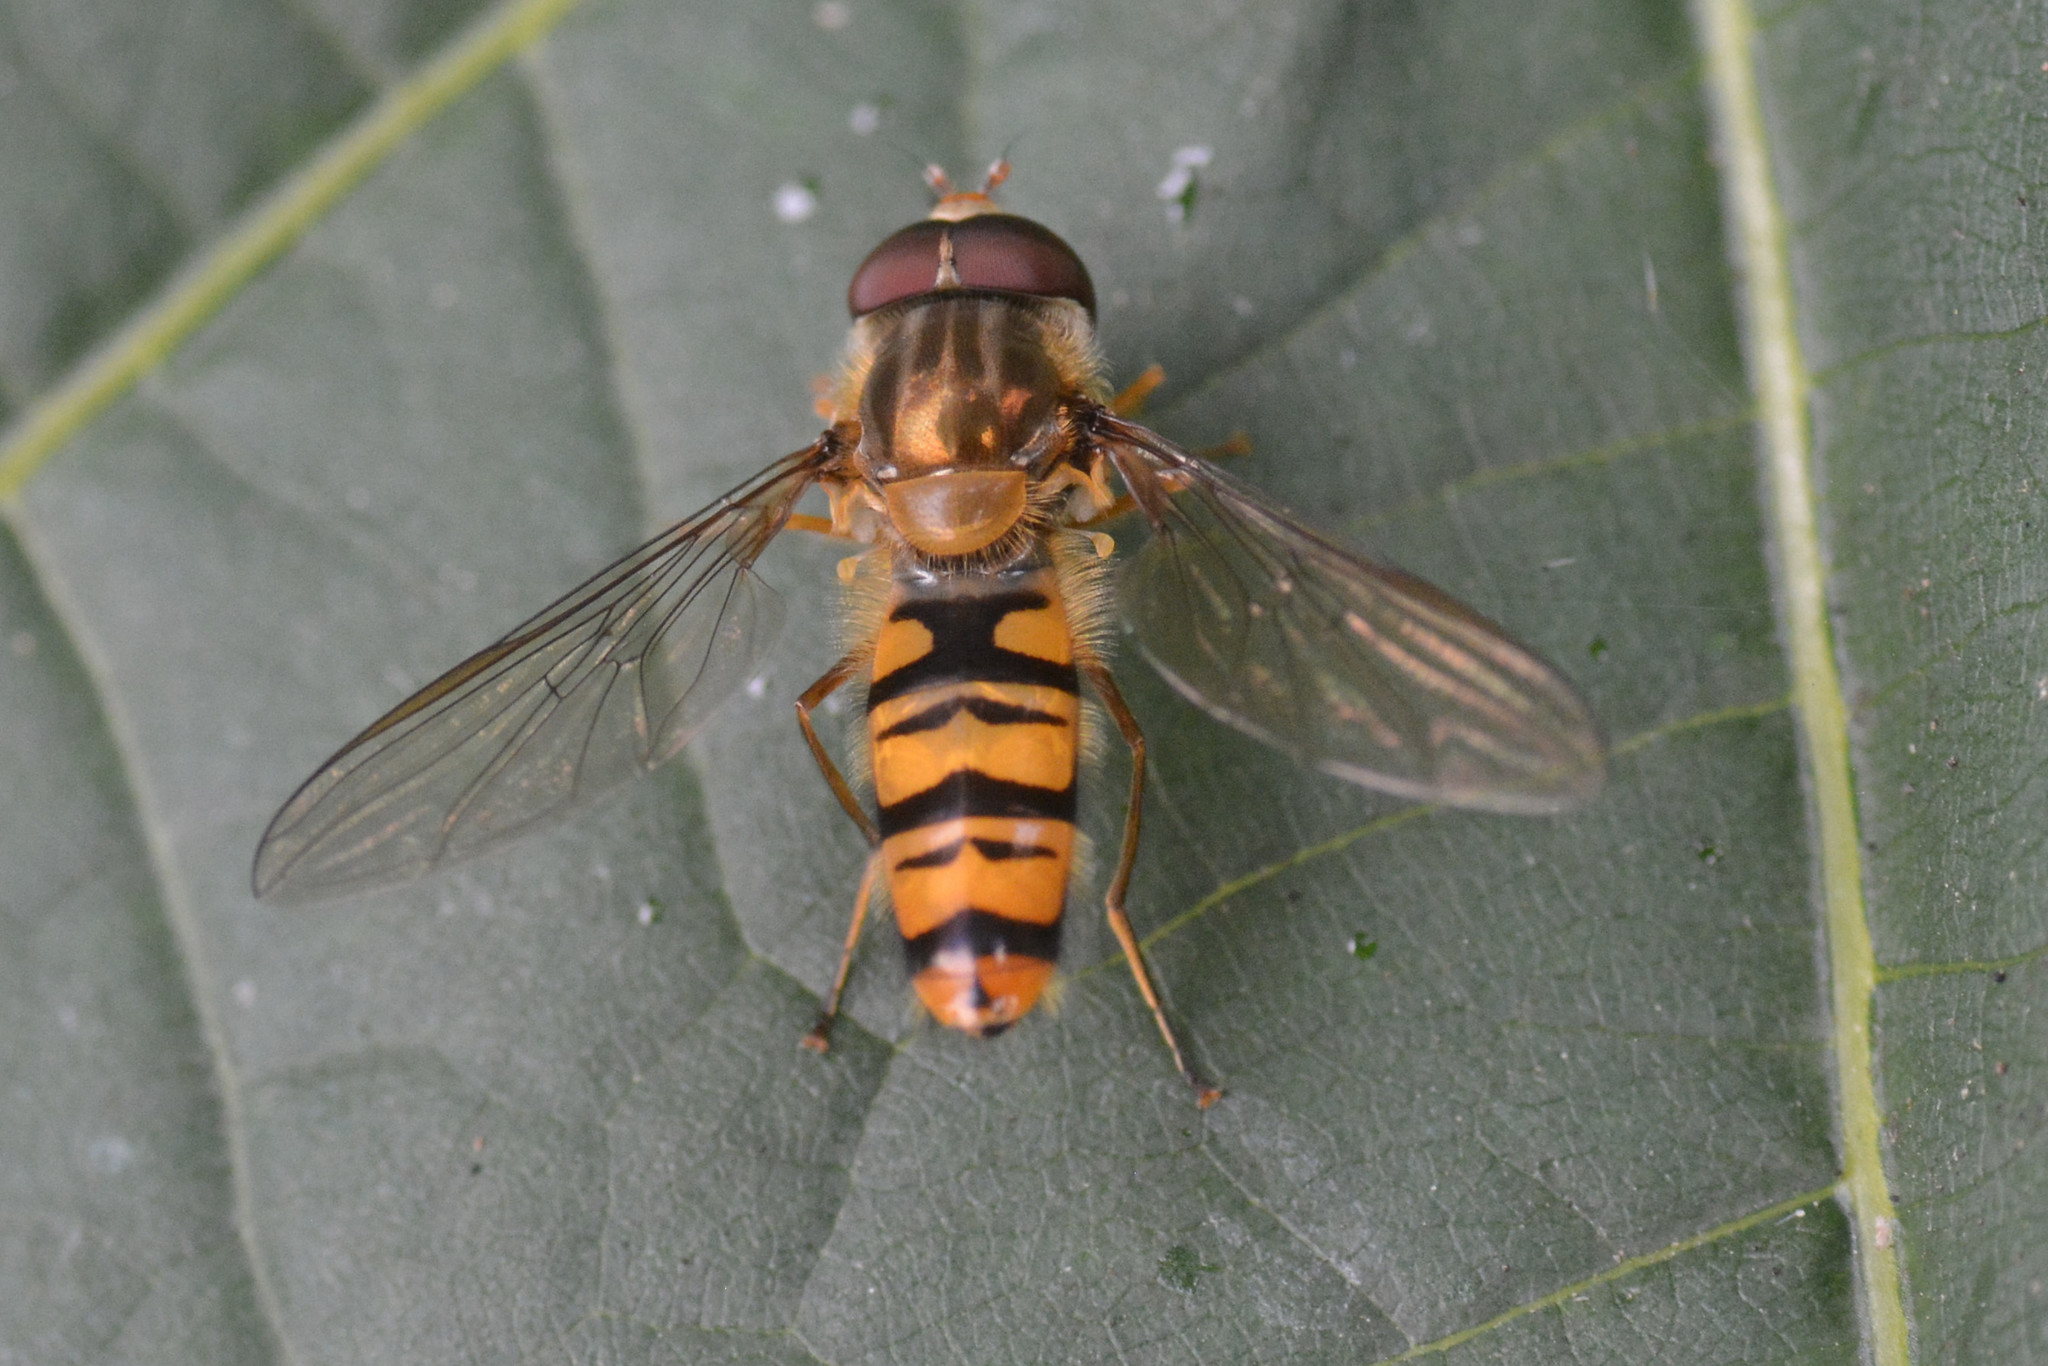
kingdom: Animalia
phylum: Arthropoda
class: Insecta
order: Diptera
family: Syrphidae
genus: Episyrphus
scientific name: Episyrphus balteatus
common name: Marmalade hoverfly
